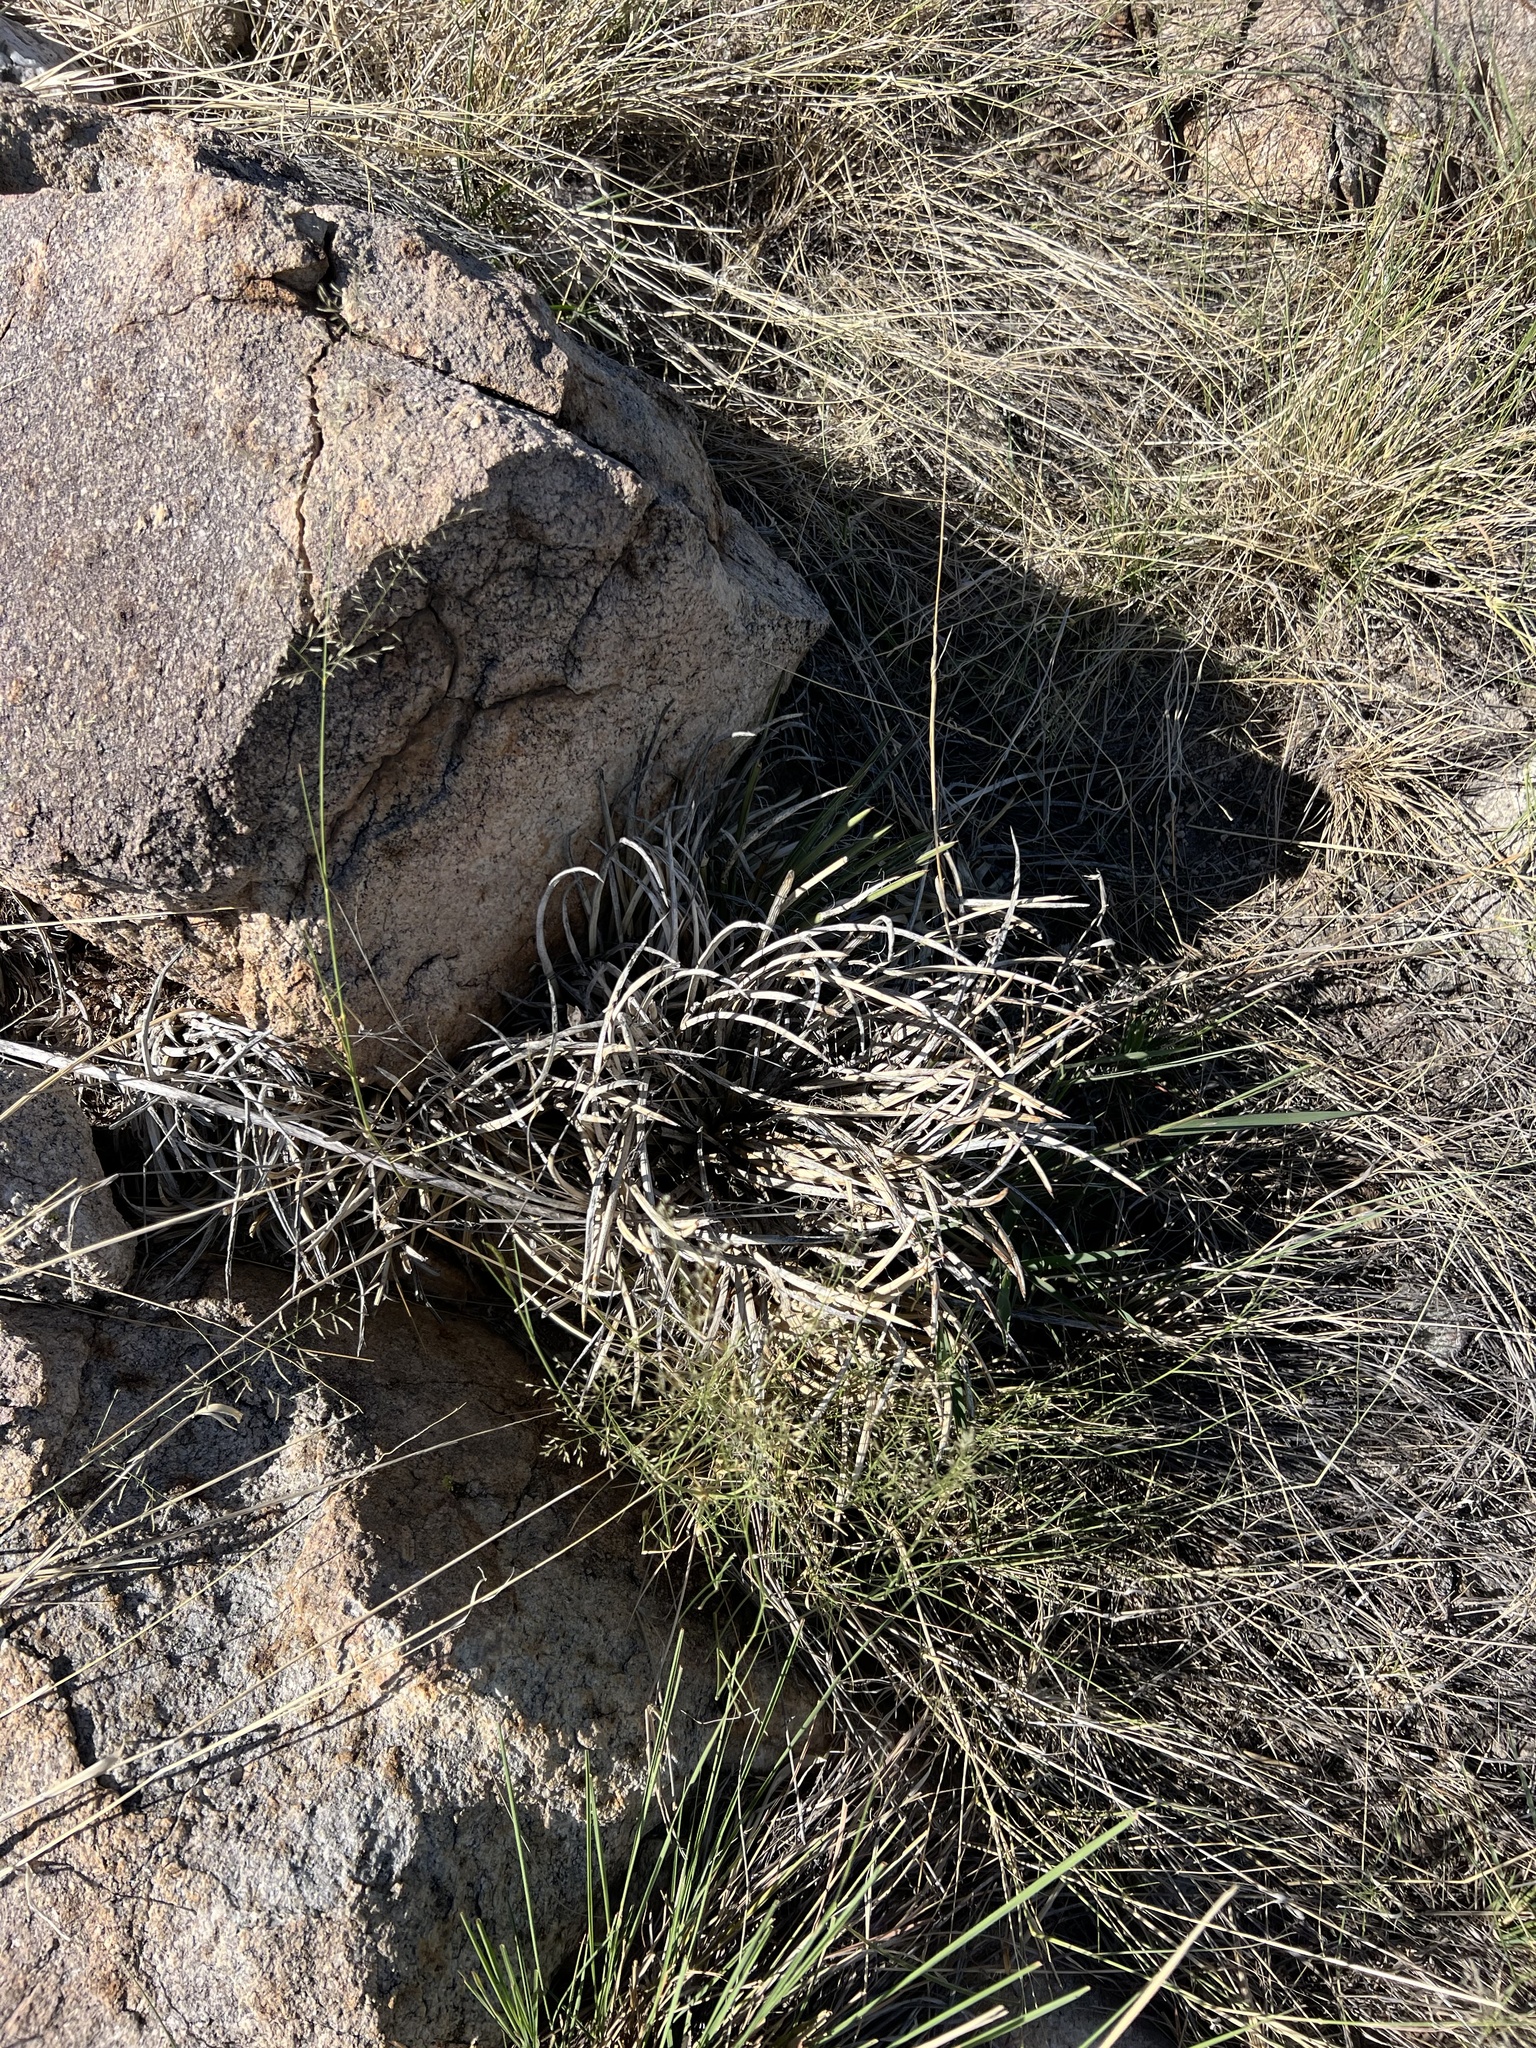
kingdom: Plantae
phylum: Tracheophyta
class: Liliopsida
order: Asparagales
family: Asparagaceae
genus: Agave
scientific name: Agave schottii
